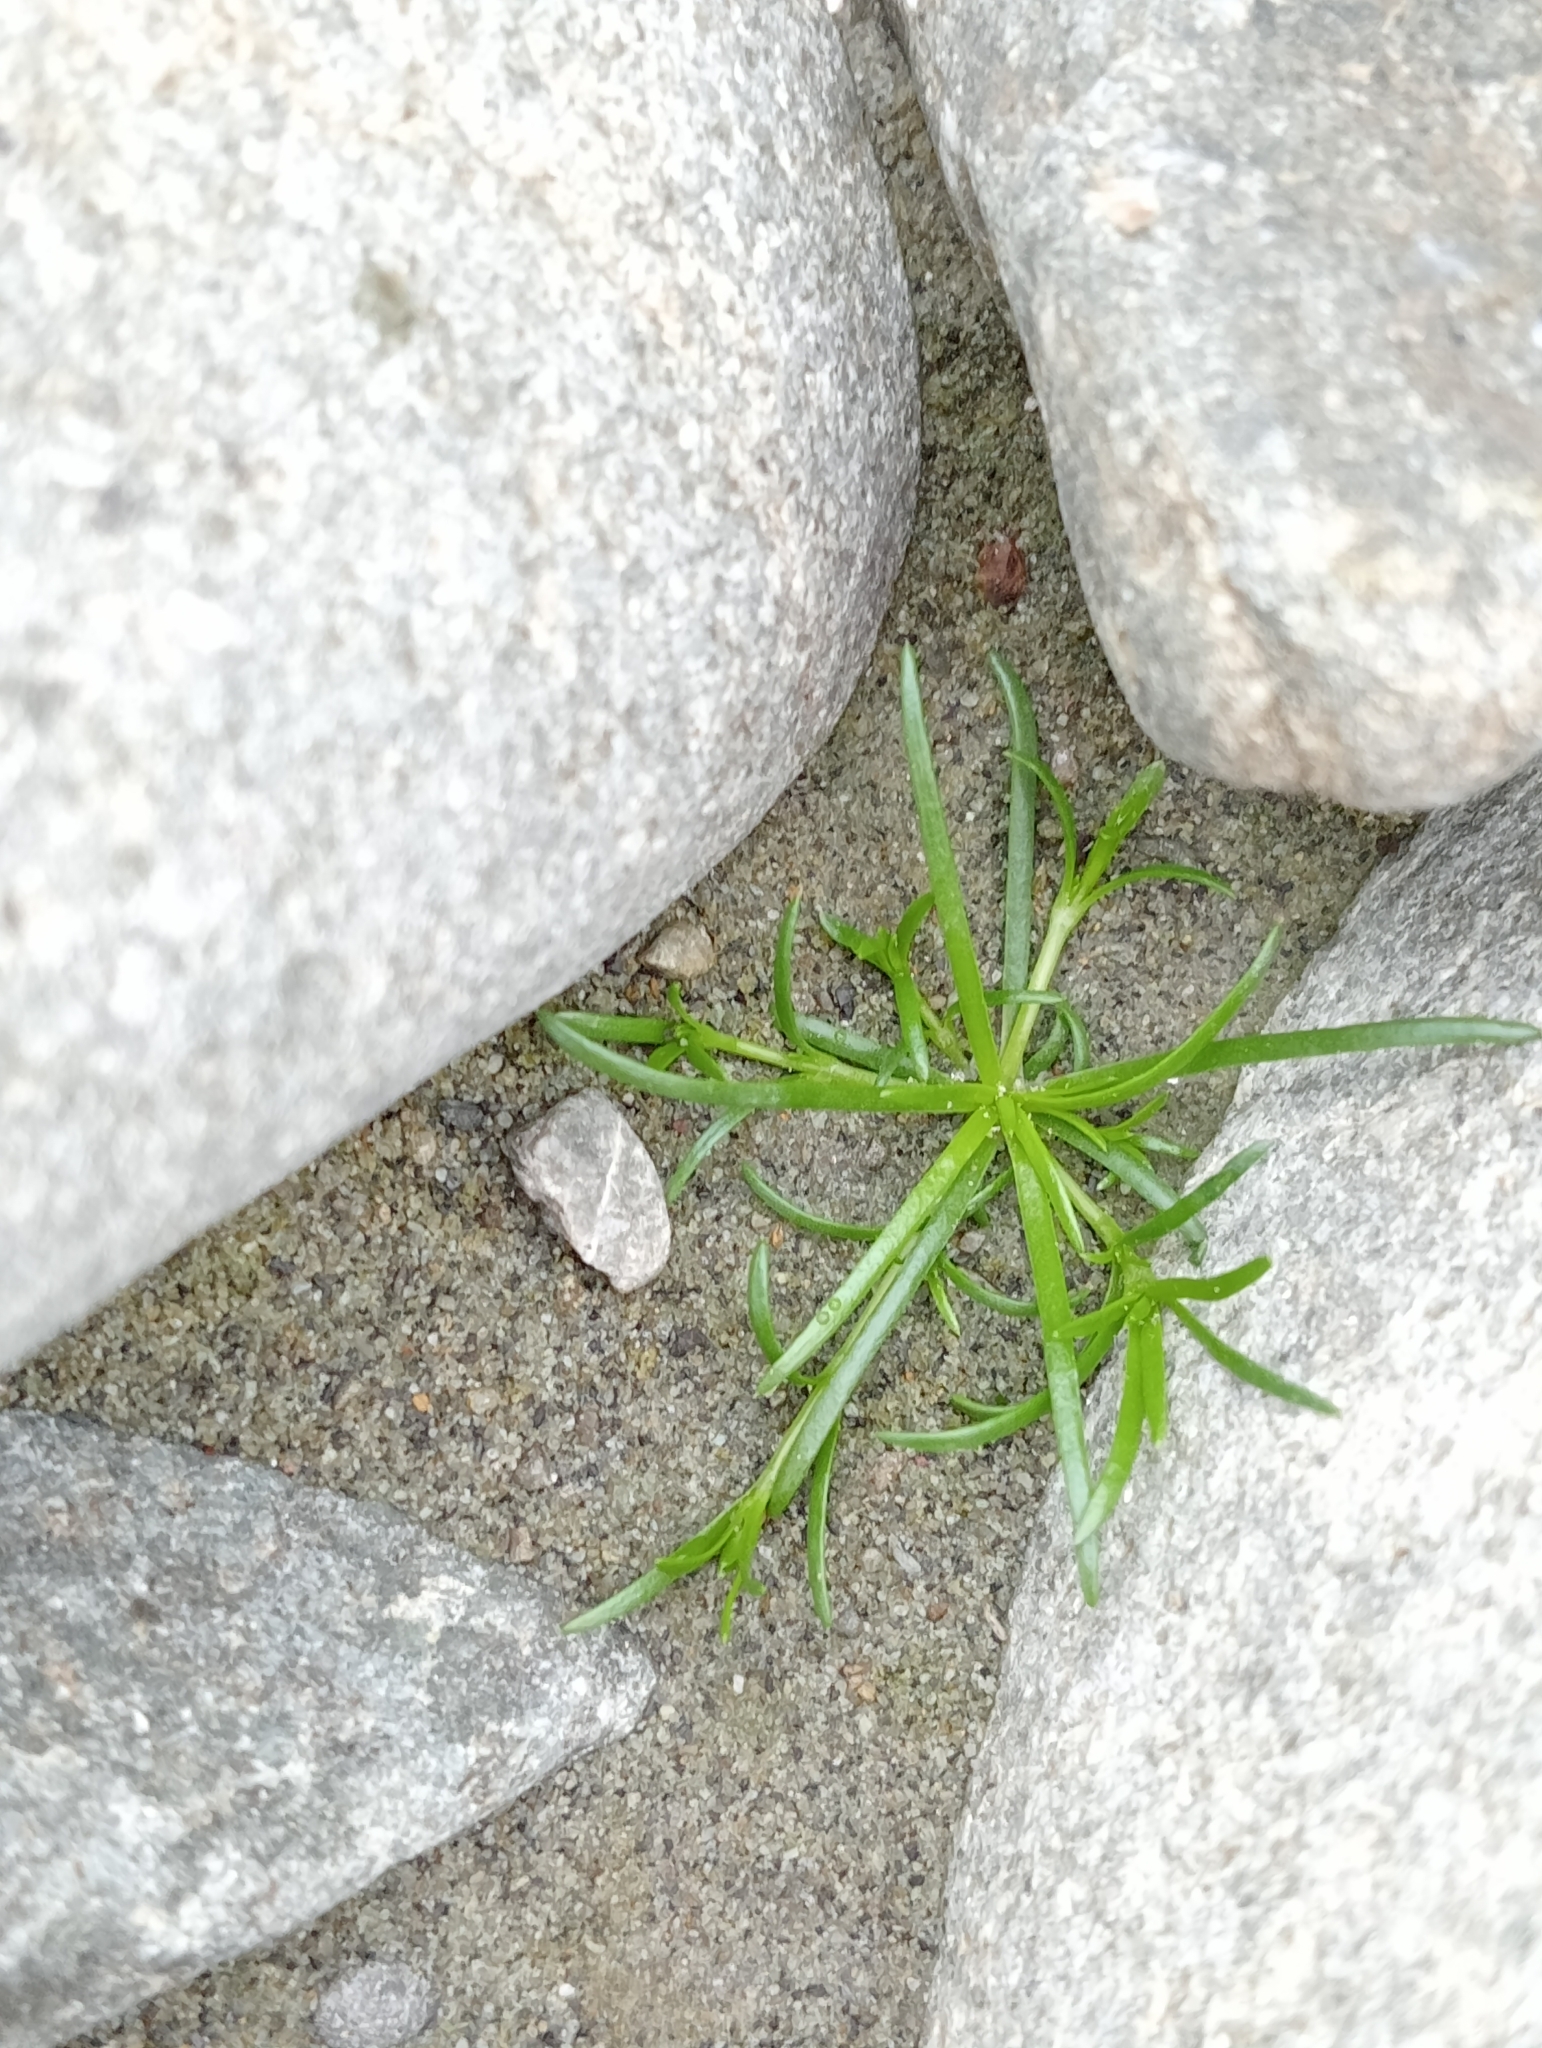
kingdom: Plantae
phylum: Tracheophyta
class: Magnoliopsida
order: Caryophyllales
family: Caryophyllaceae
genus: Sagina
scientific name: Sagina procumbens
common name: Procumbent pearlwort
